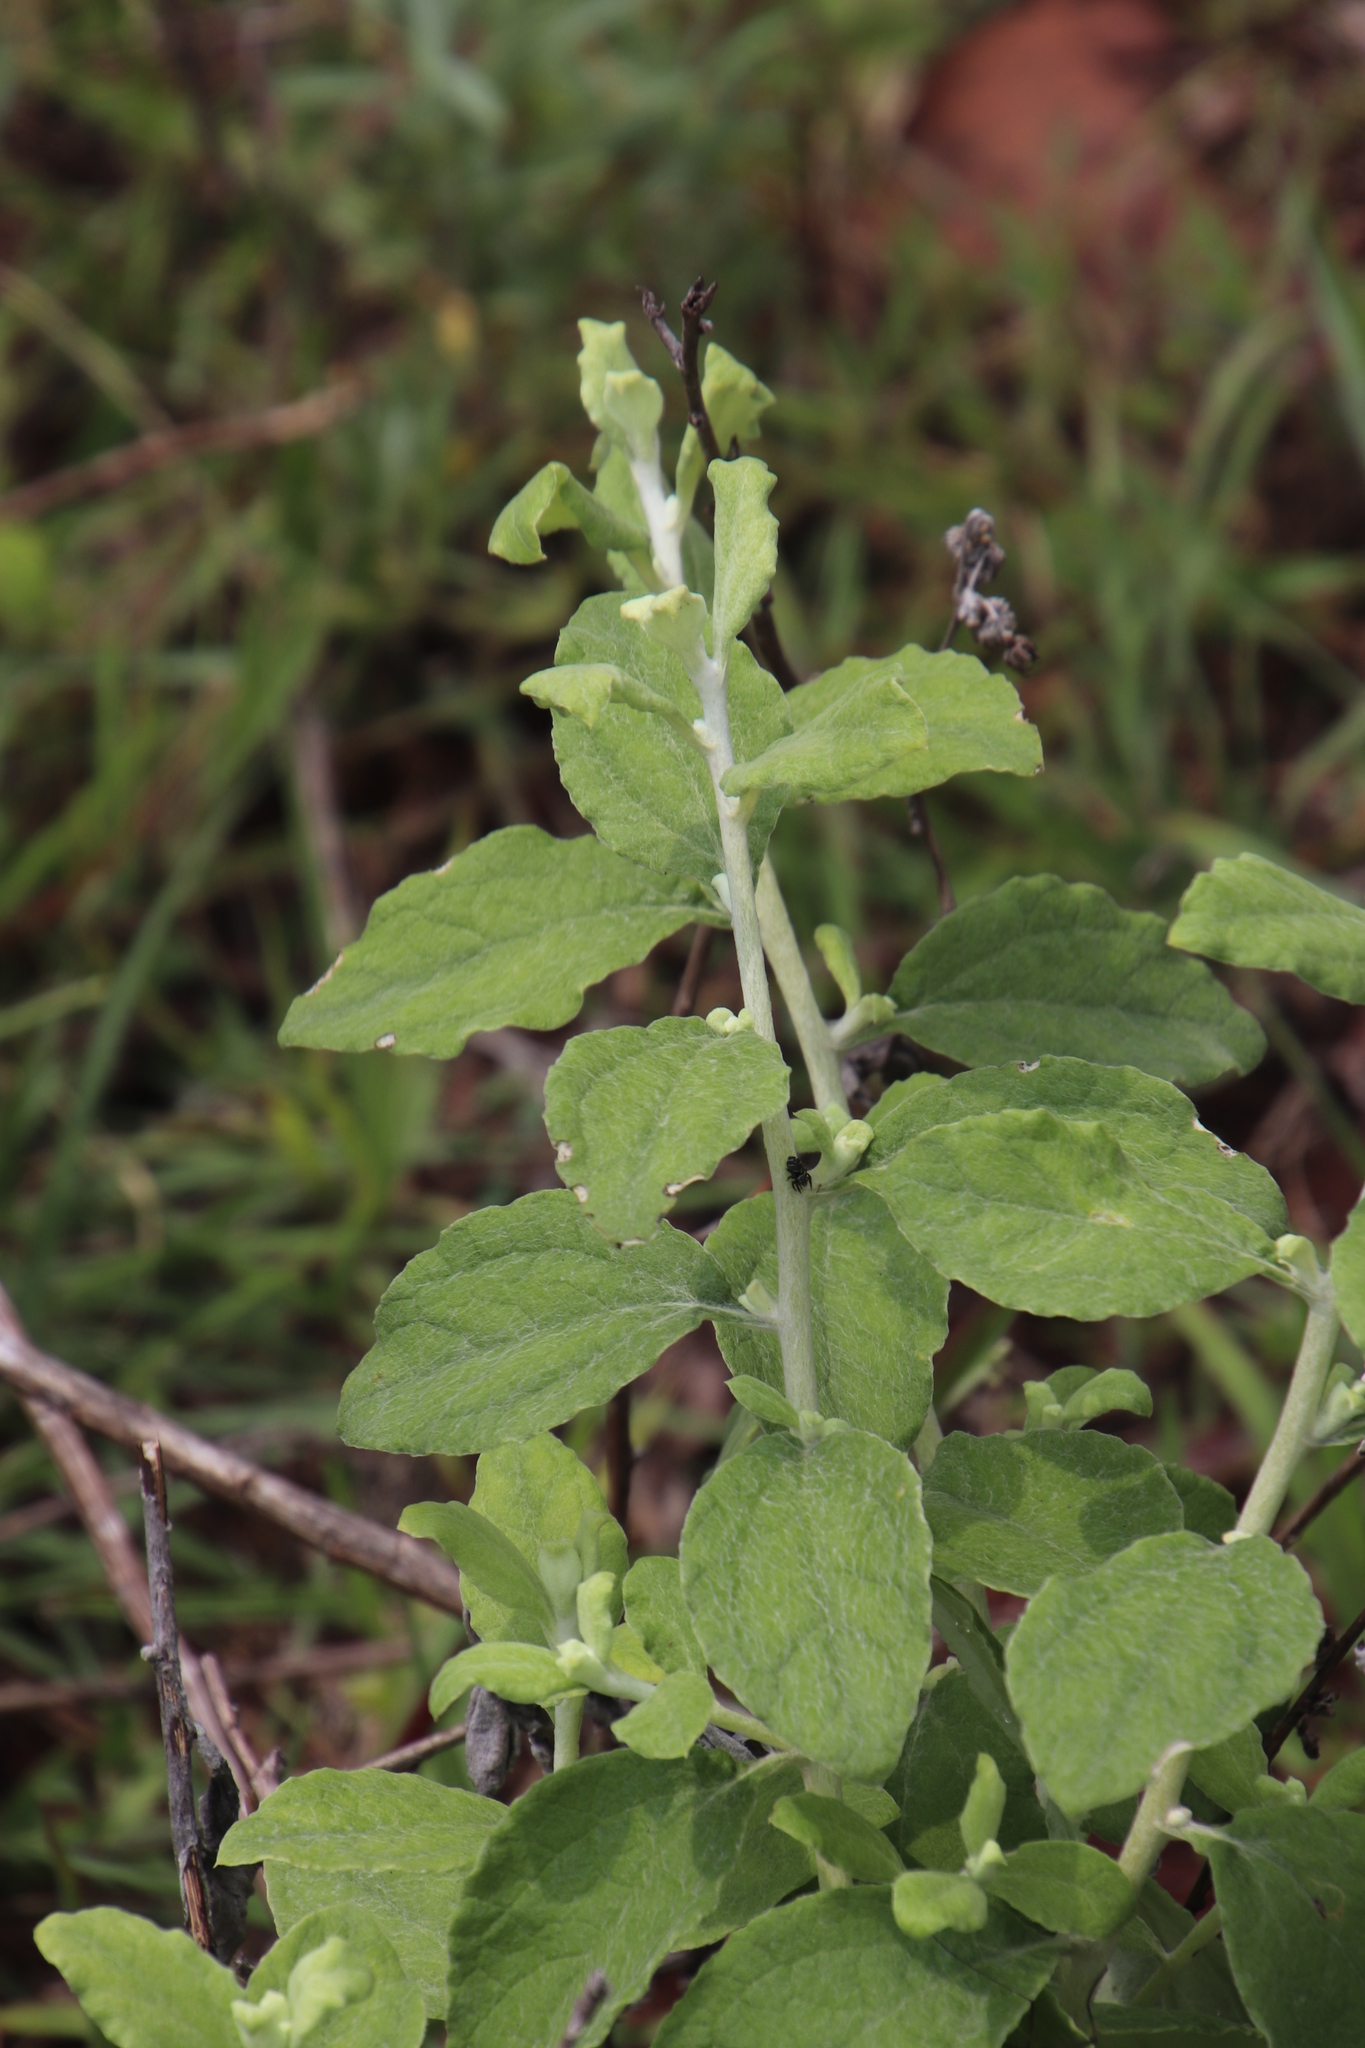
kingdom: Plantae
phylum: Tracheophyta
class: Magnoliopsida
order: Asterales
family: Asteraceae
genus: Helichrysum
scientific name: Helichrysum panduratum
